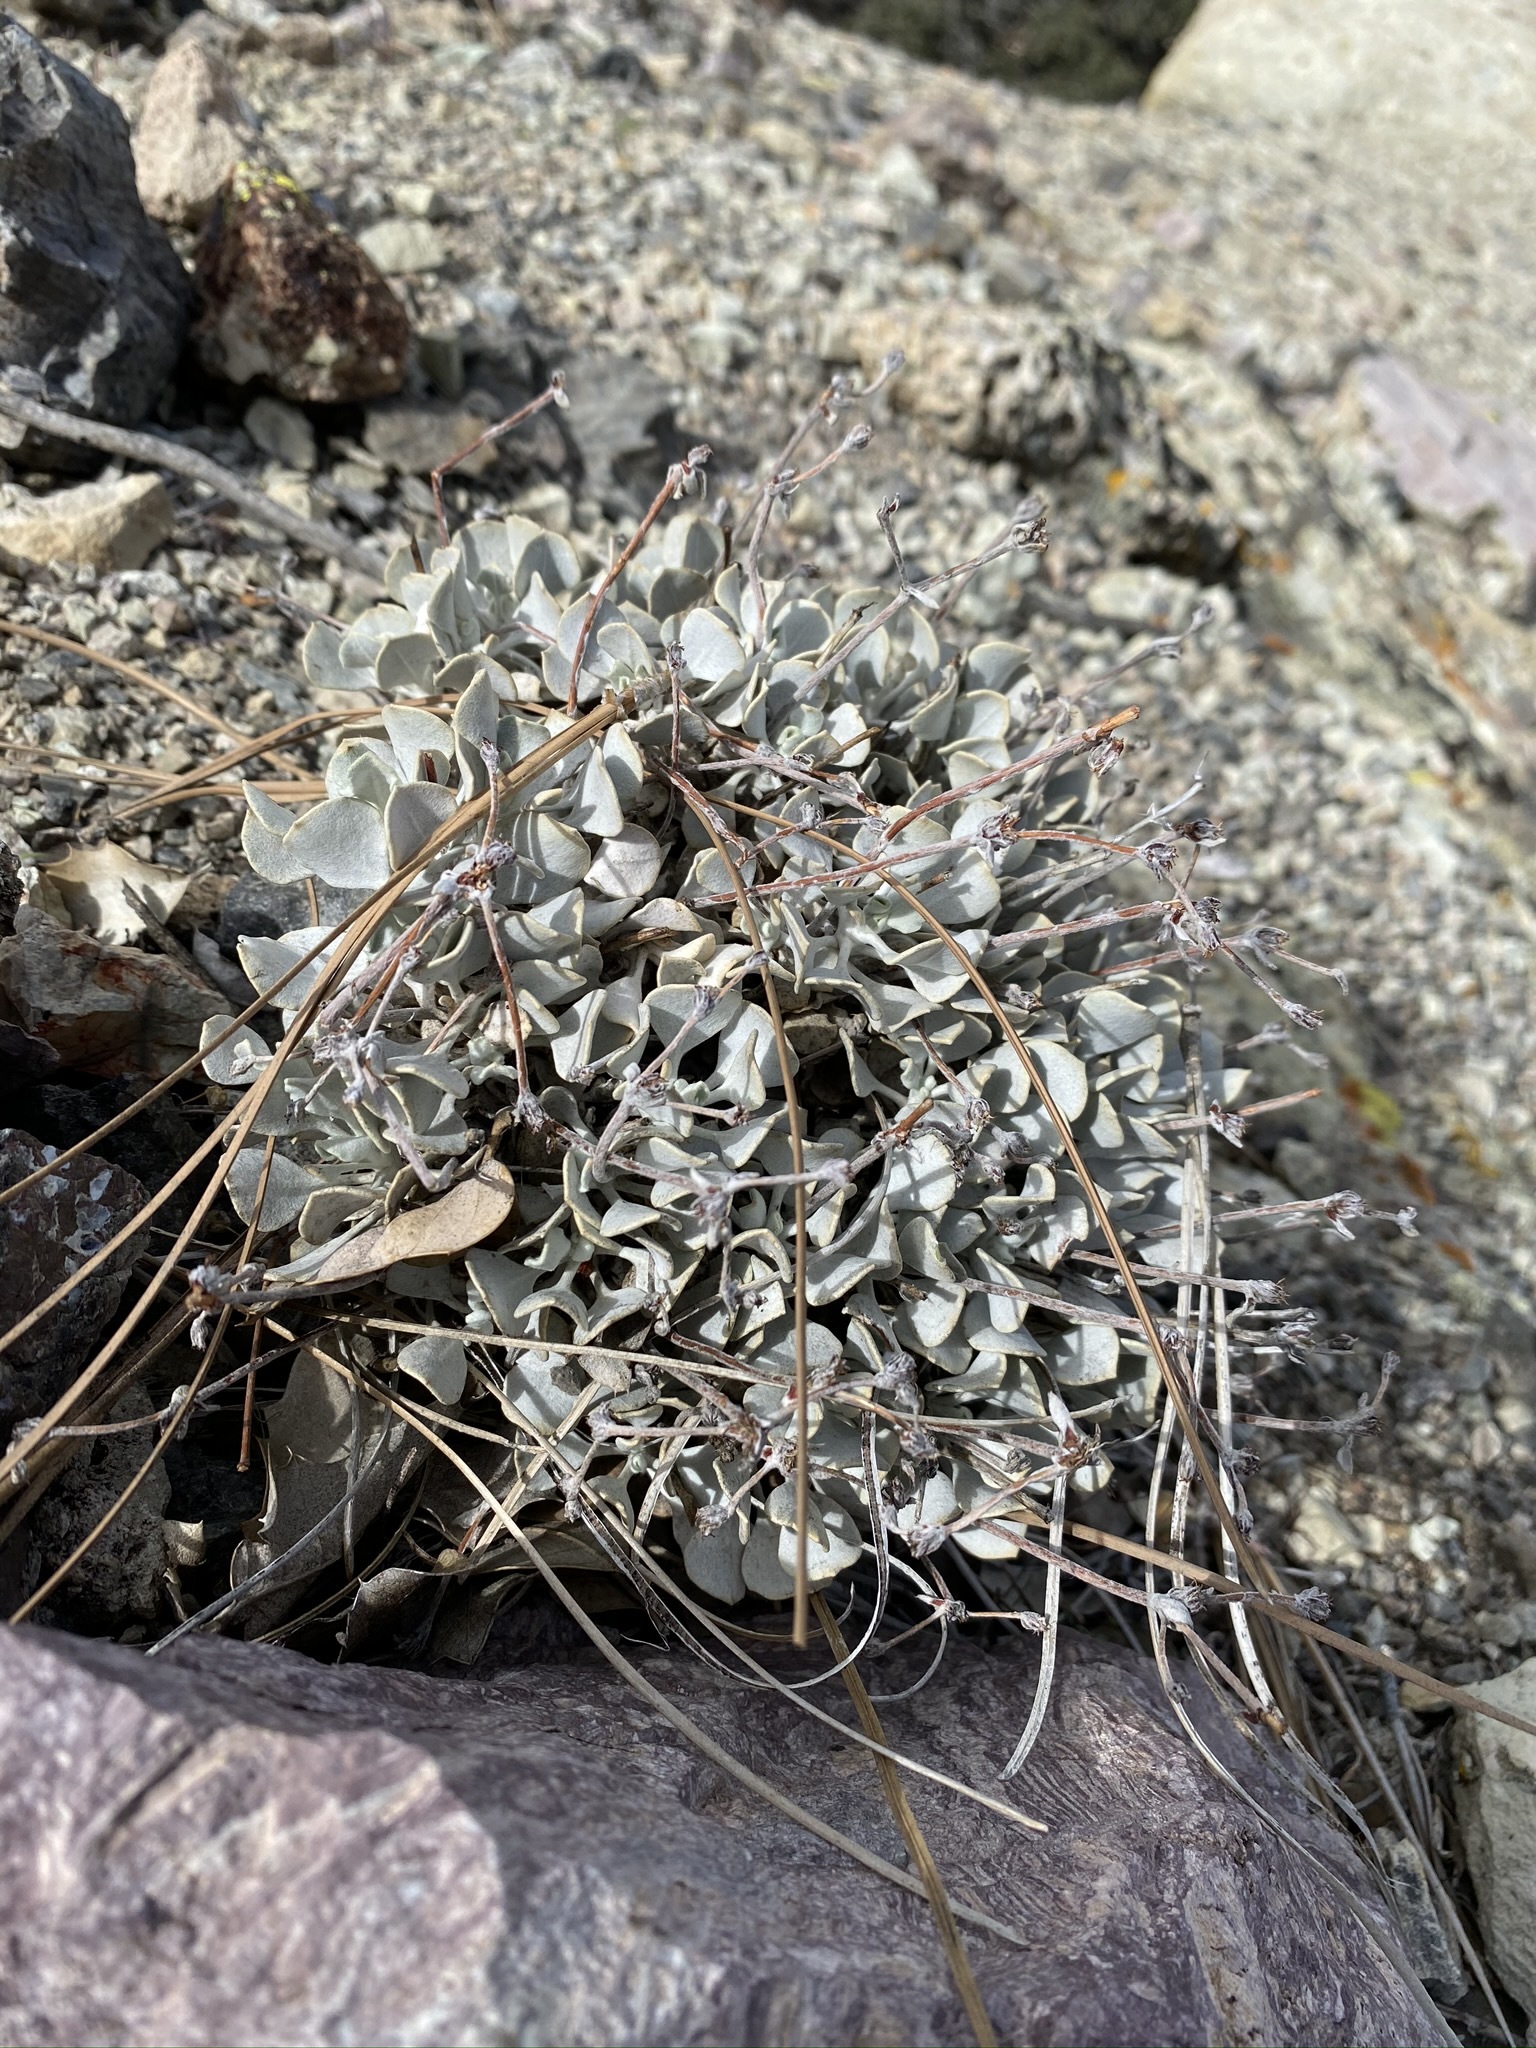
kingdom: Plantae
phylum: Tracheophyta
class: Magnoliopsida
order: Caryophyllales
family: Polygonaceae
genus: Eriogonum
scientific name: Eriogonum saxatile
